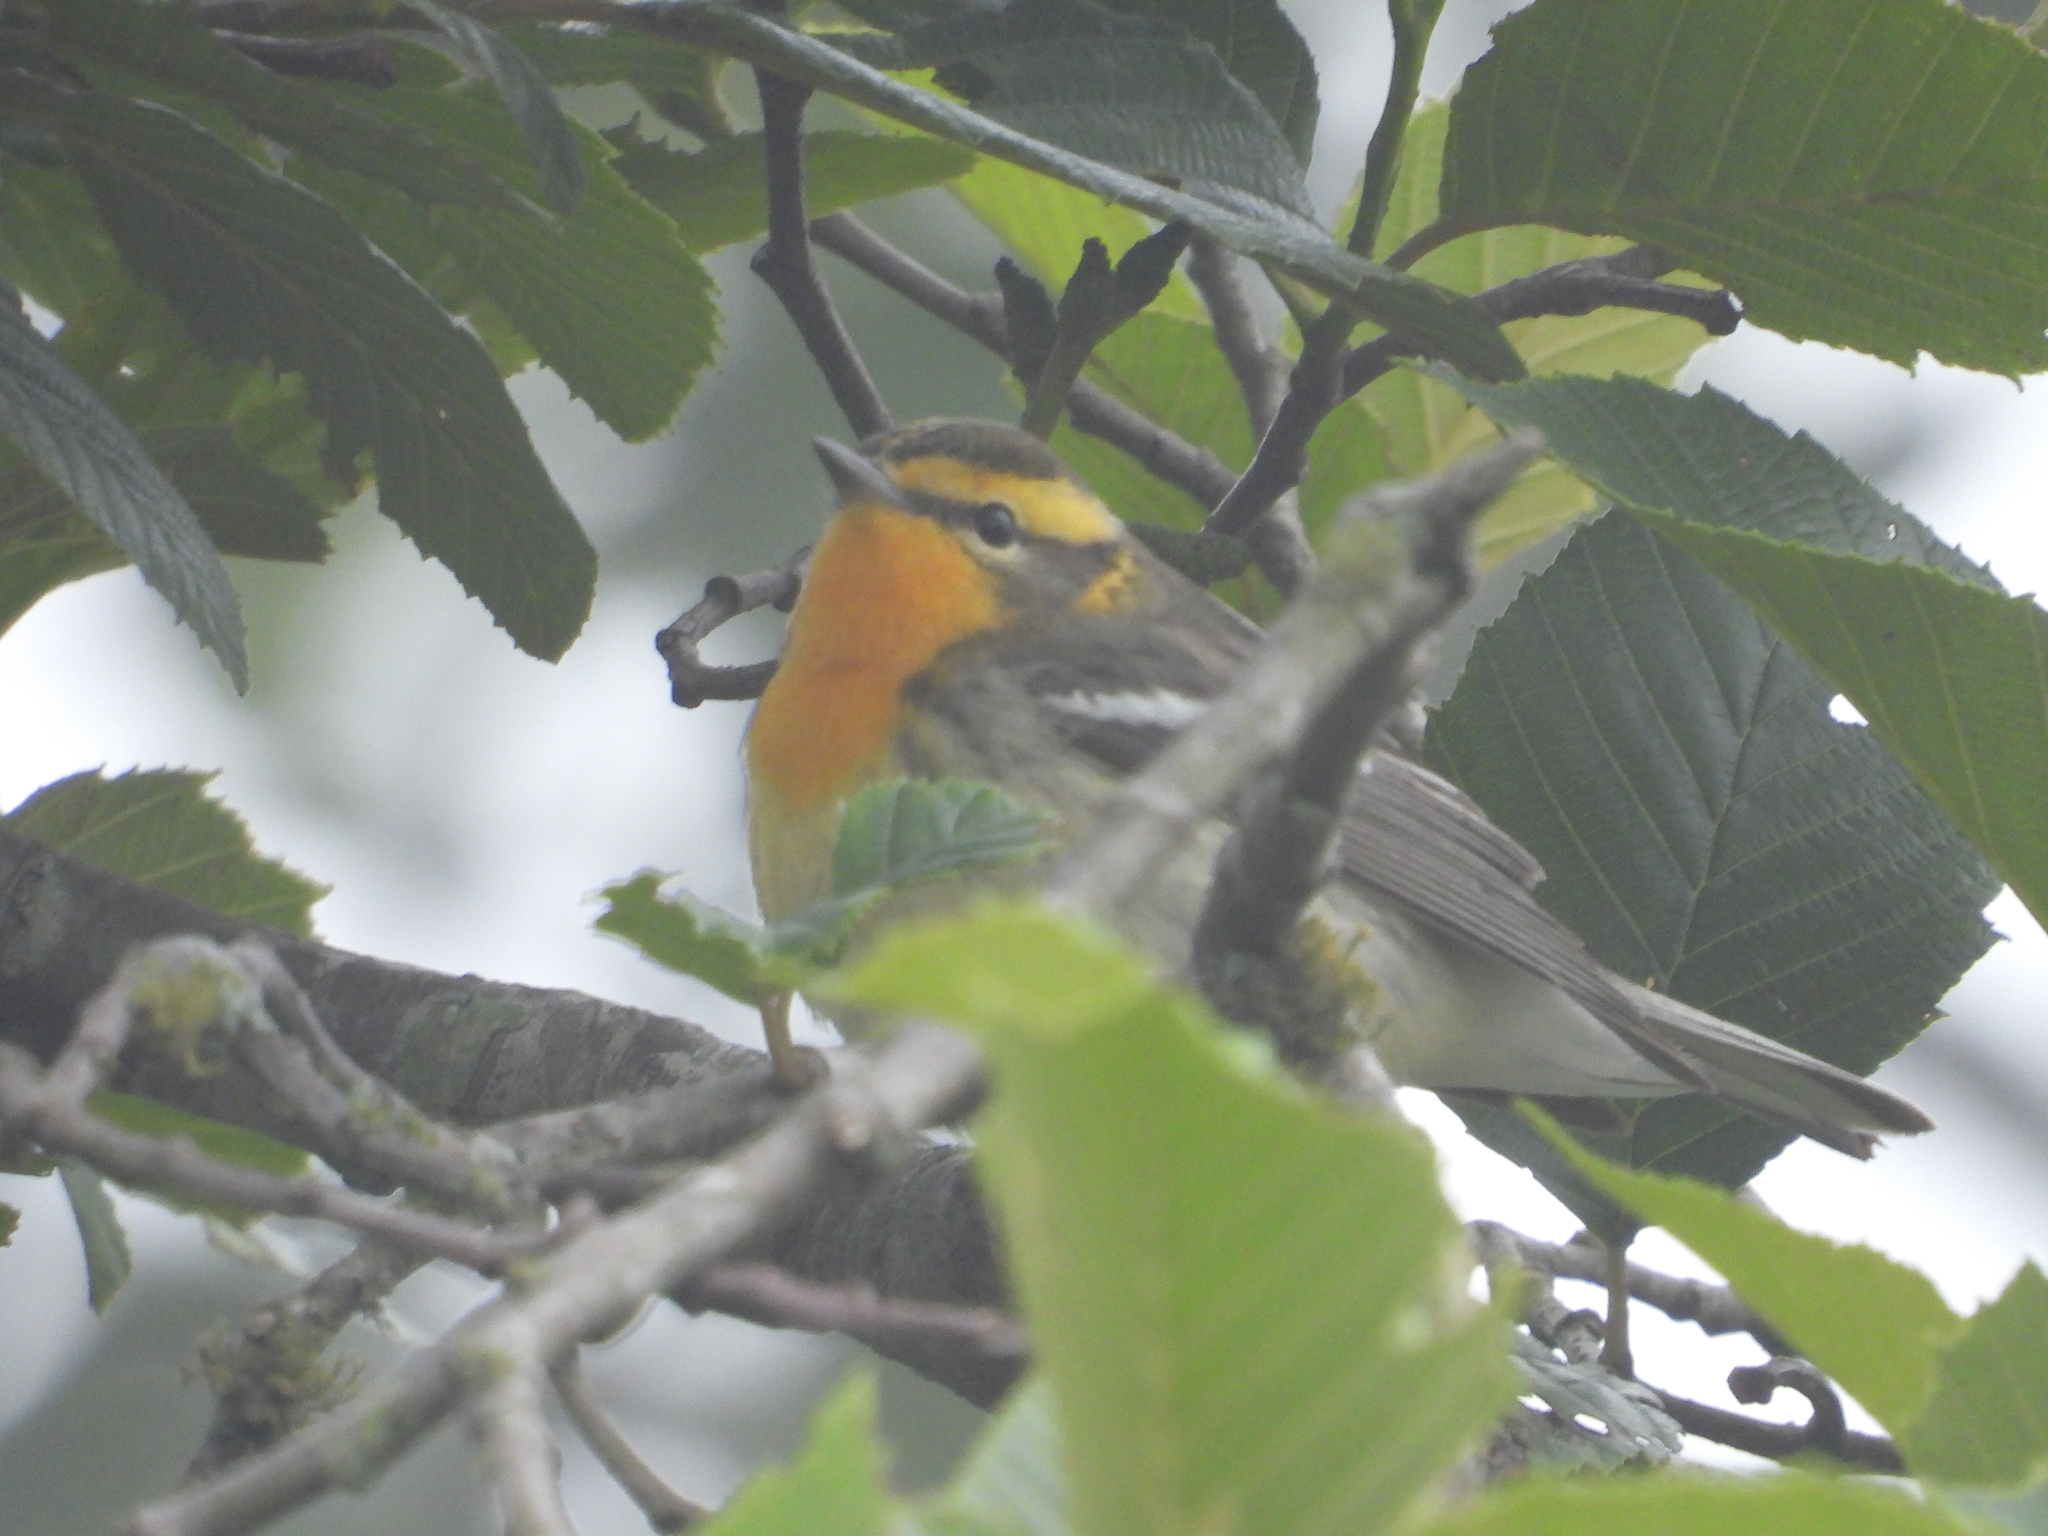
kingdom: Animalia
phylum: Chordata
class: Aves
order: Passeriformes
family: Parulidae
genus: Setophaga
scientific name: Setophaga fusca
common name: Blackburnian warbler
